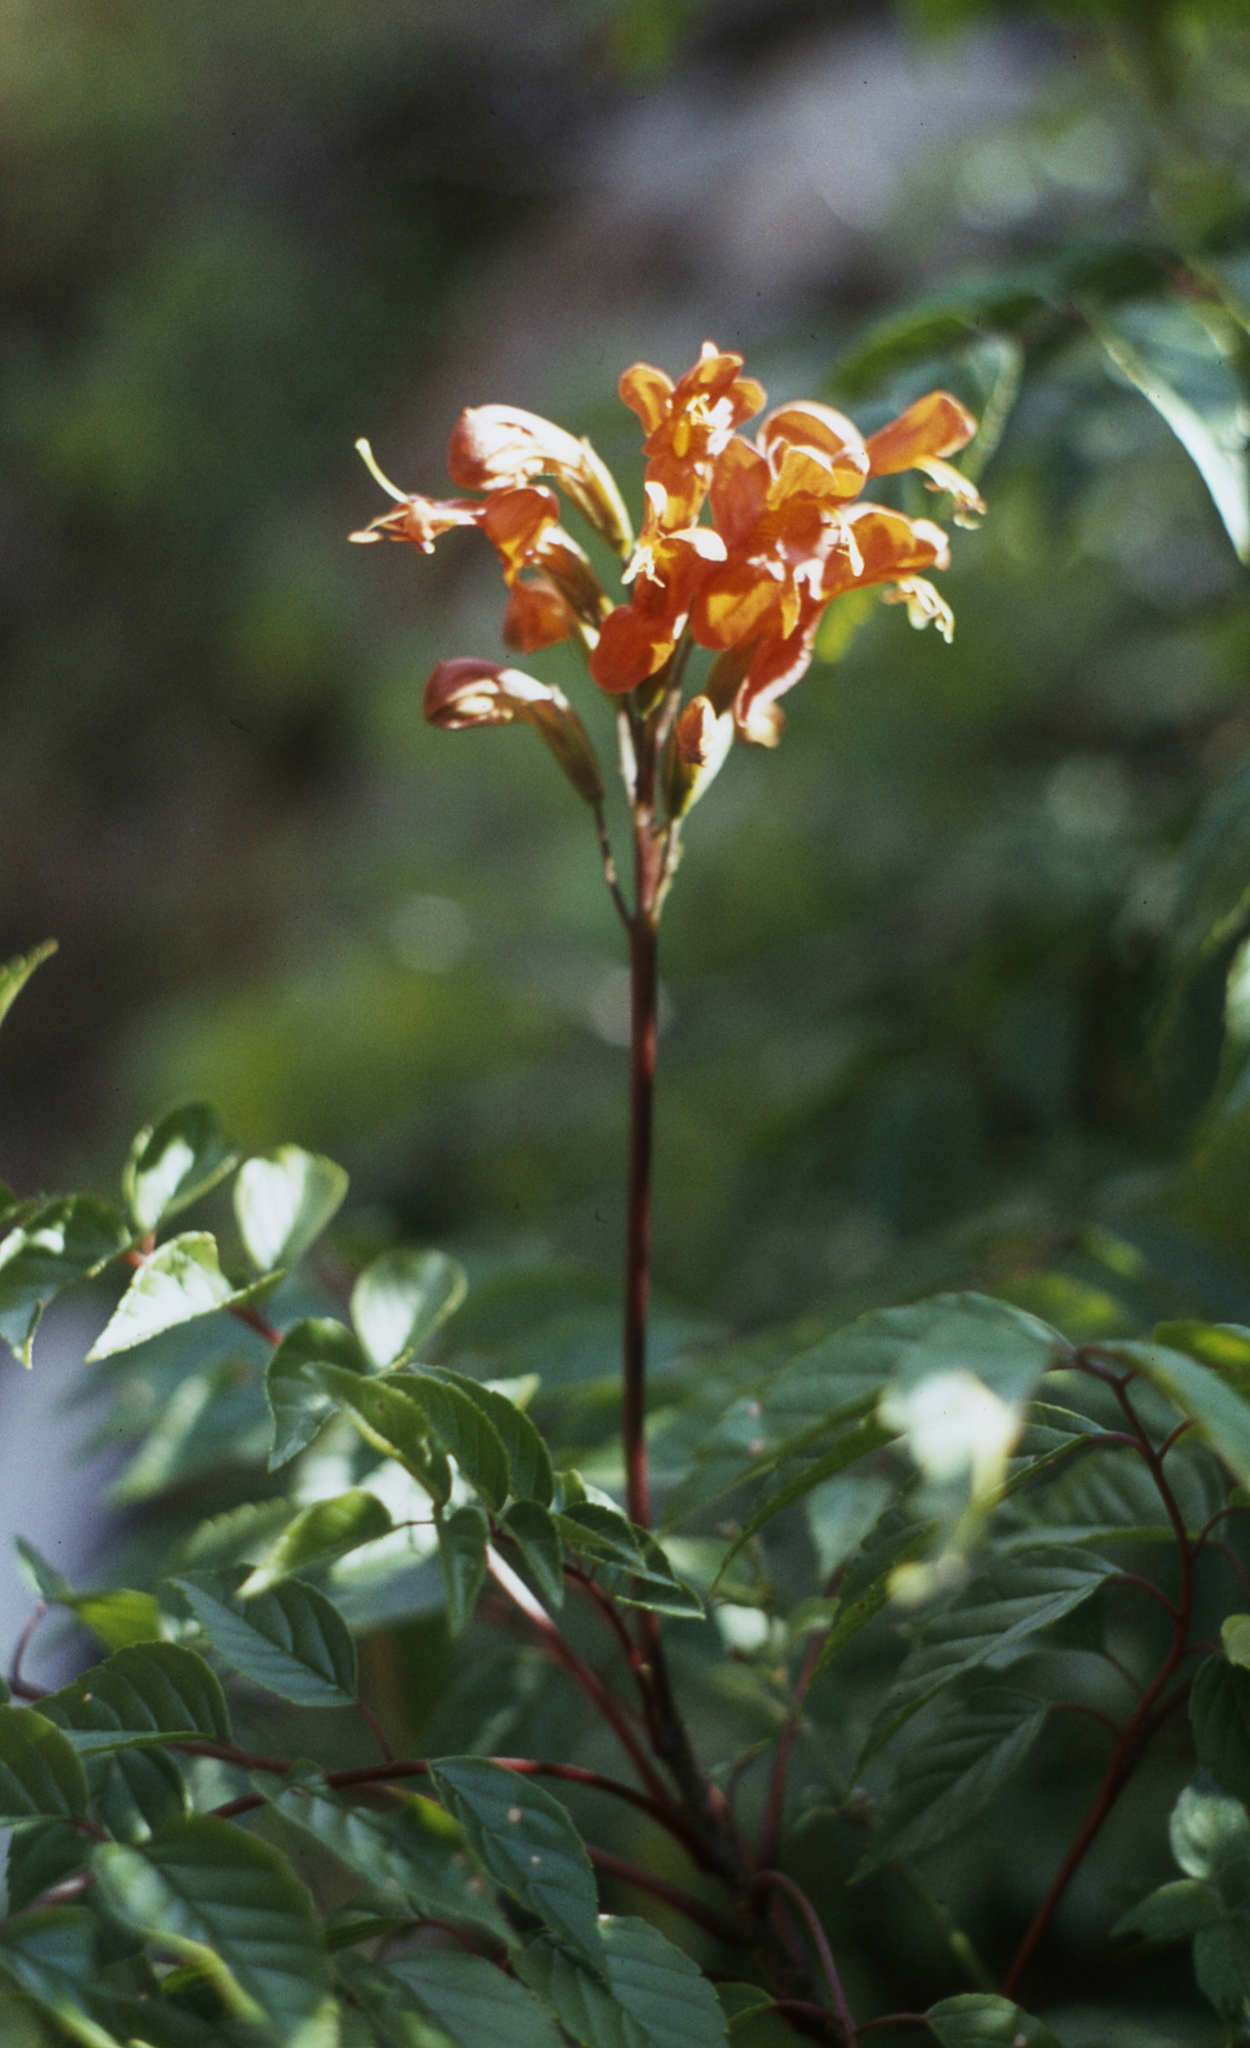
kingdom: Plantae
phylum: Tracheophyta
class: Magnoliopsida
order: Lamiales
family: Bignoniaceae
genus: Tecomaria
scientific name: Tecomaria nyassae
